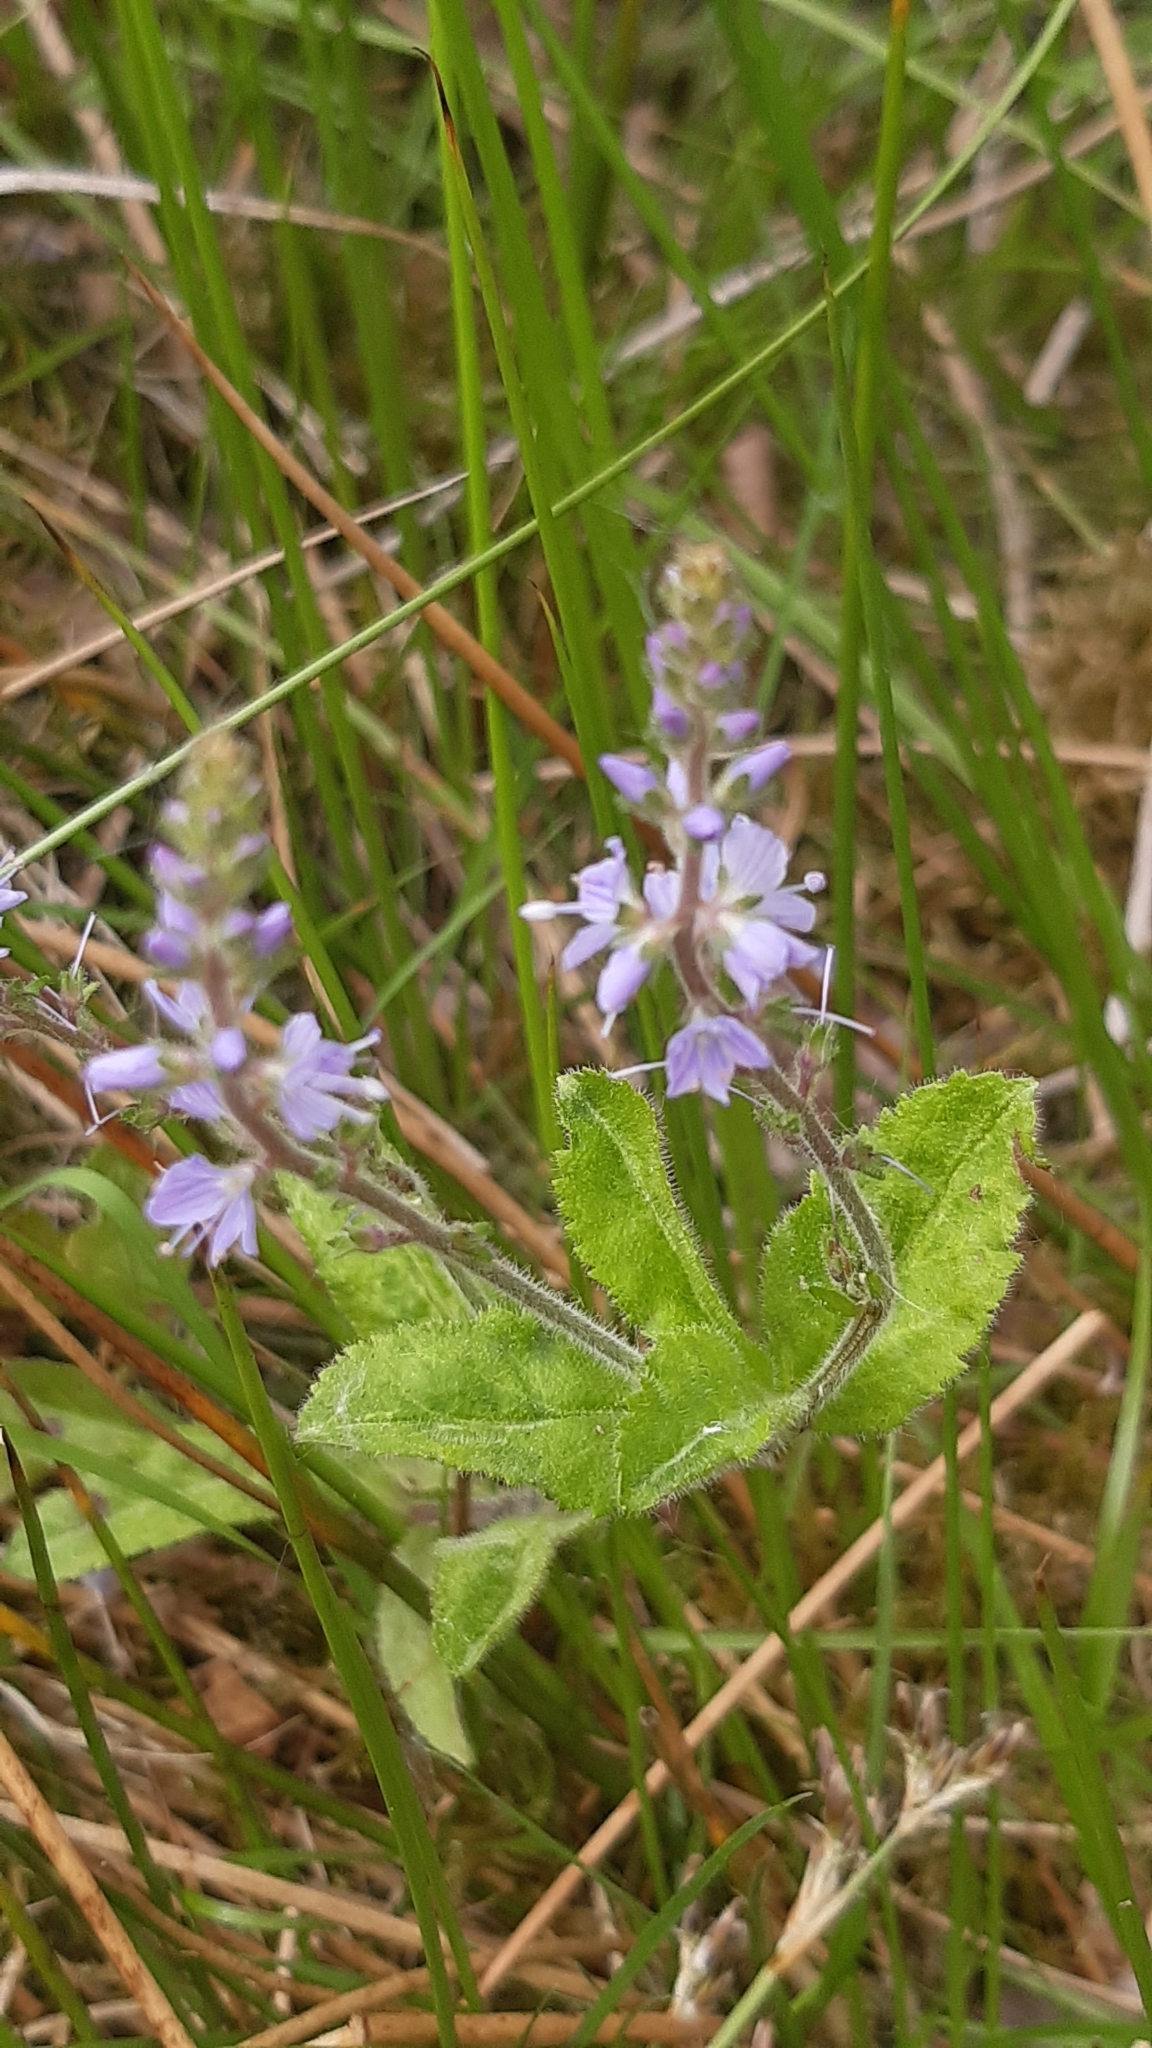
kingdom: Plantae
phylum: Tracheophyta
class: Magnoliopsida
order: Lamiales
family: Plantaginaceae
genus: Veronica
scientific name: Veronica officinalis
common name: Common speedwell
